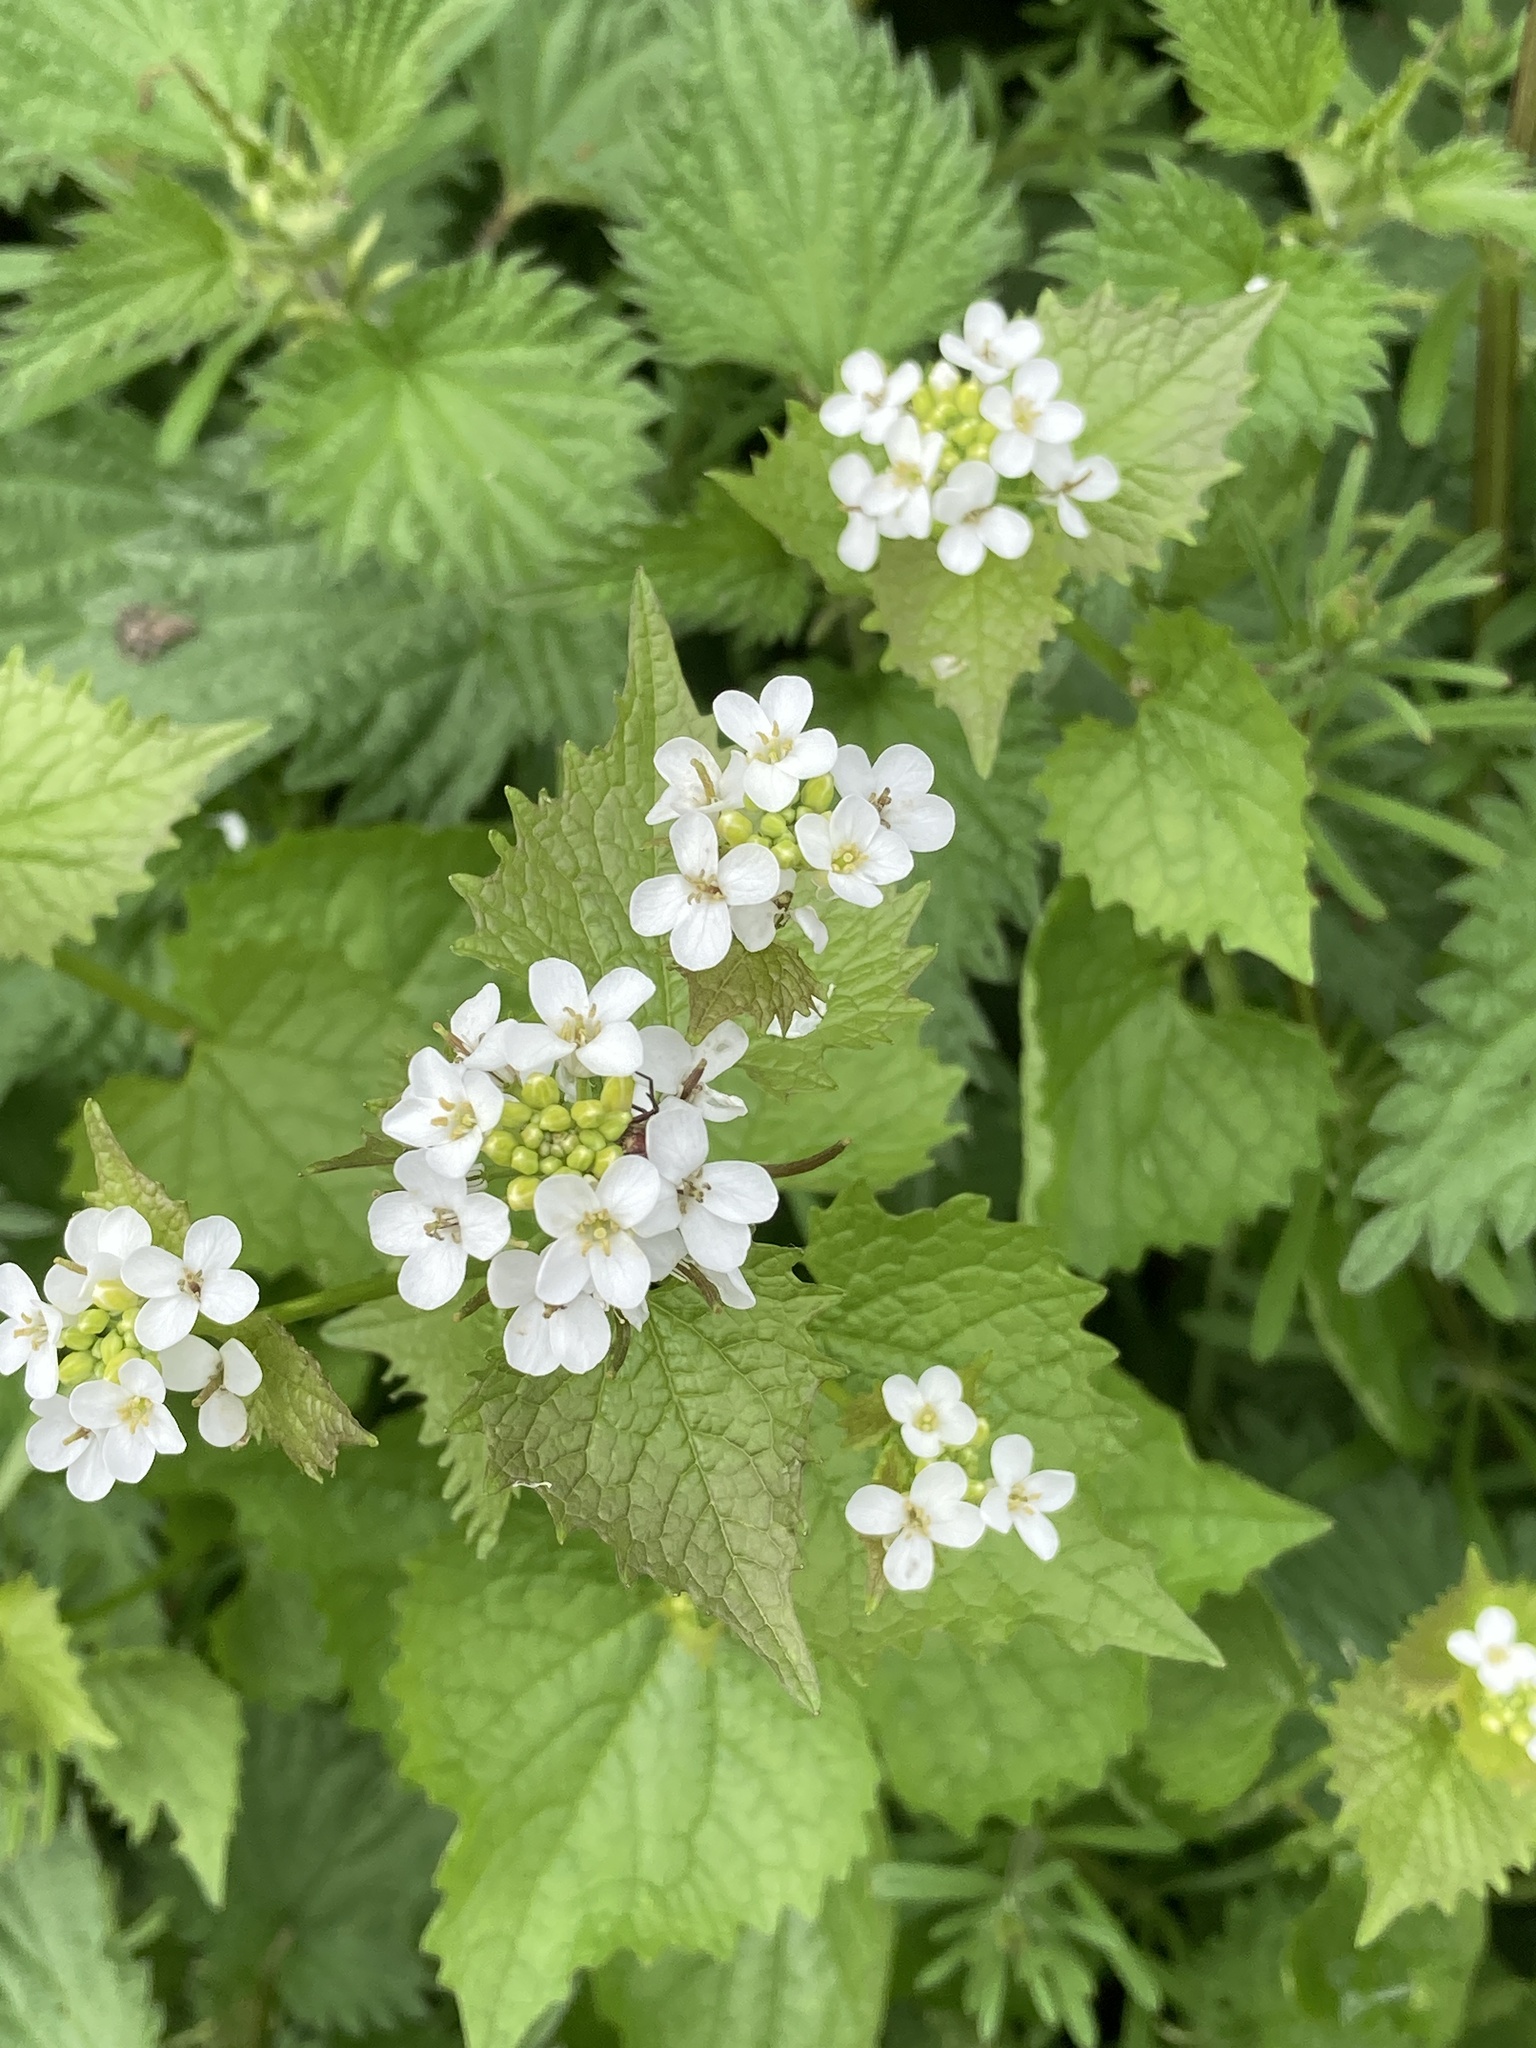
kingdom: Plantae
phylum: Tracheophyta
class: Magnoliopsida
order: Brassicales
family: Brassicaceae
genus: Alliaria
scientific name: Alliaria petiolata
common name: Garlic mustard
